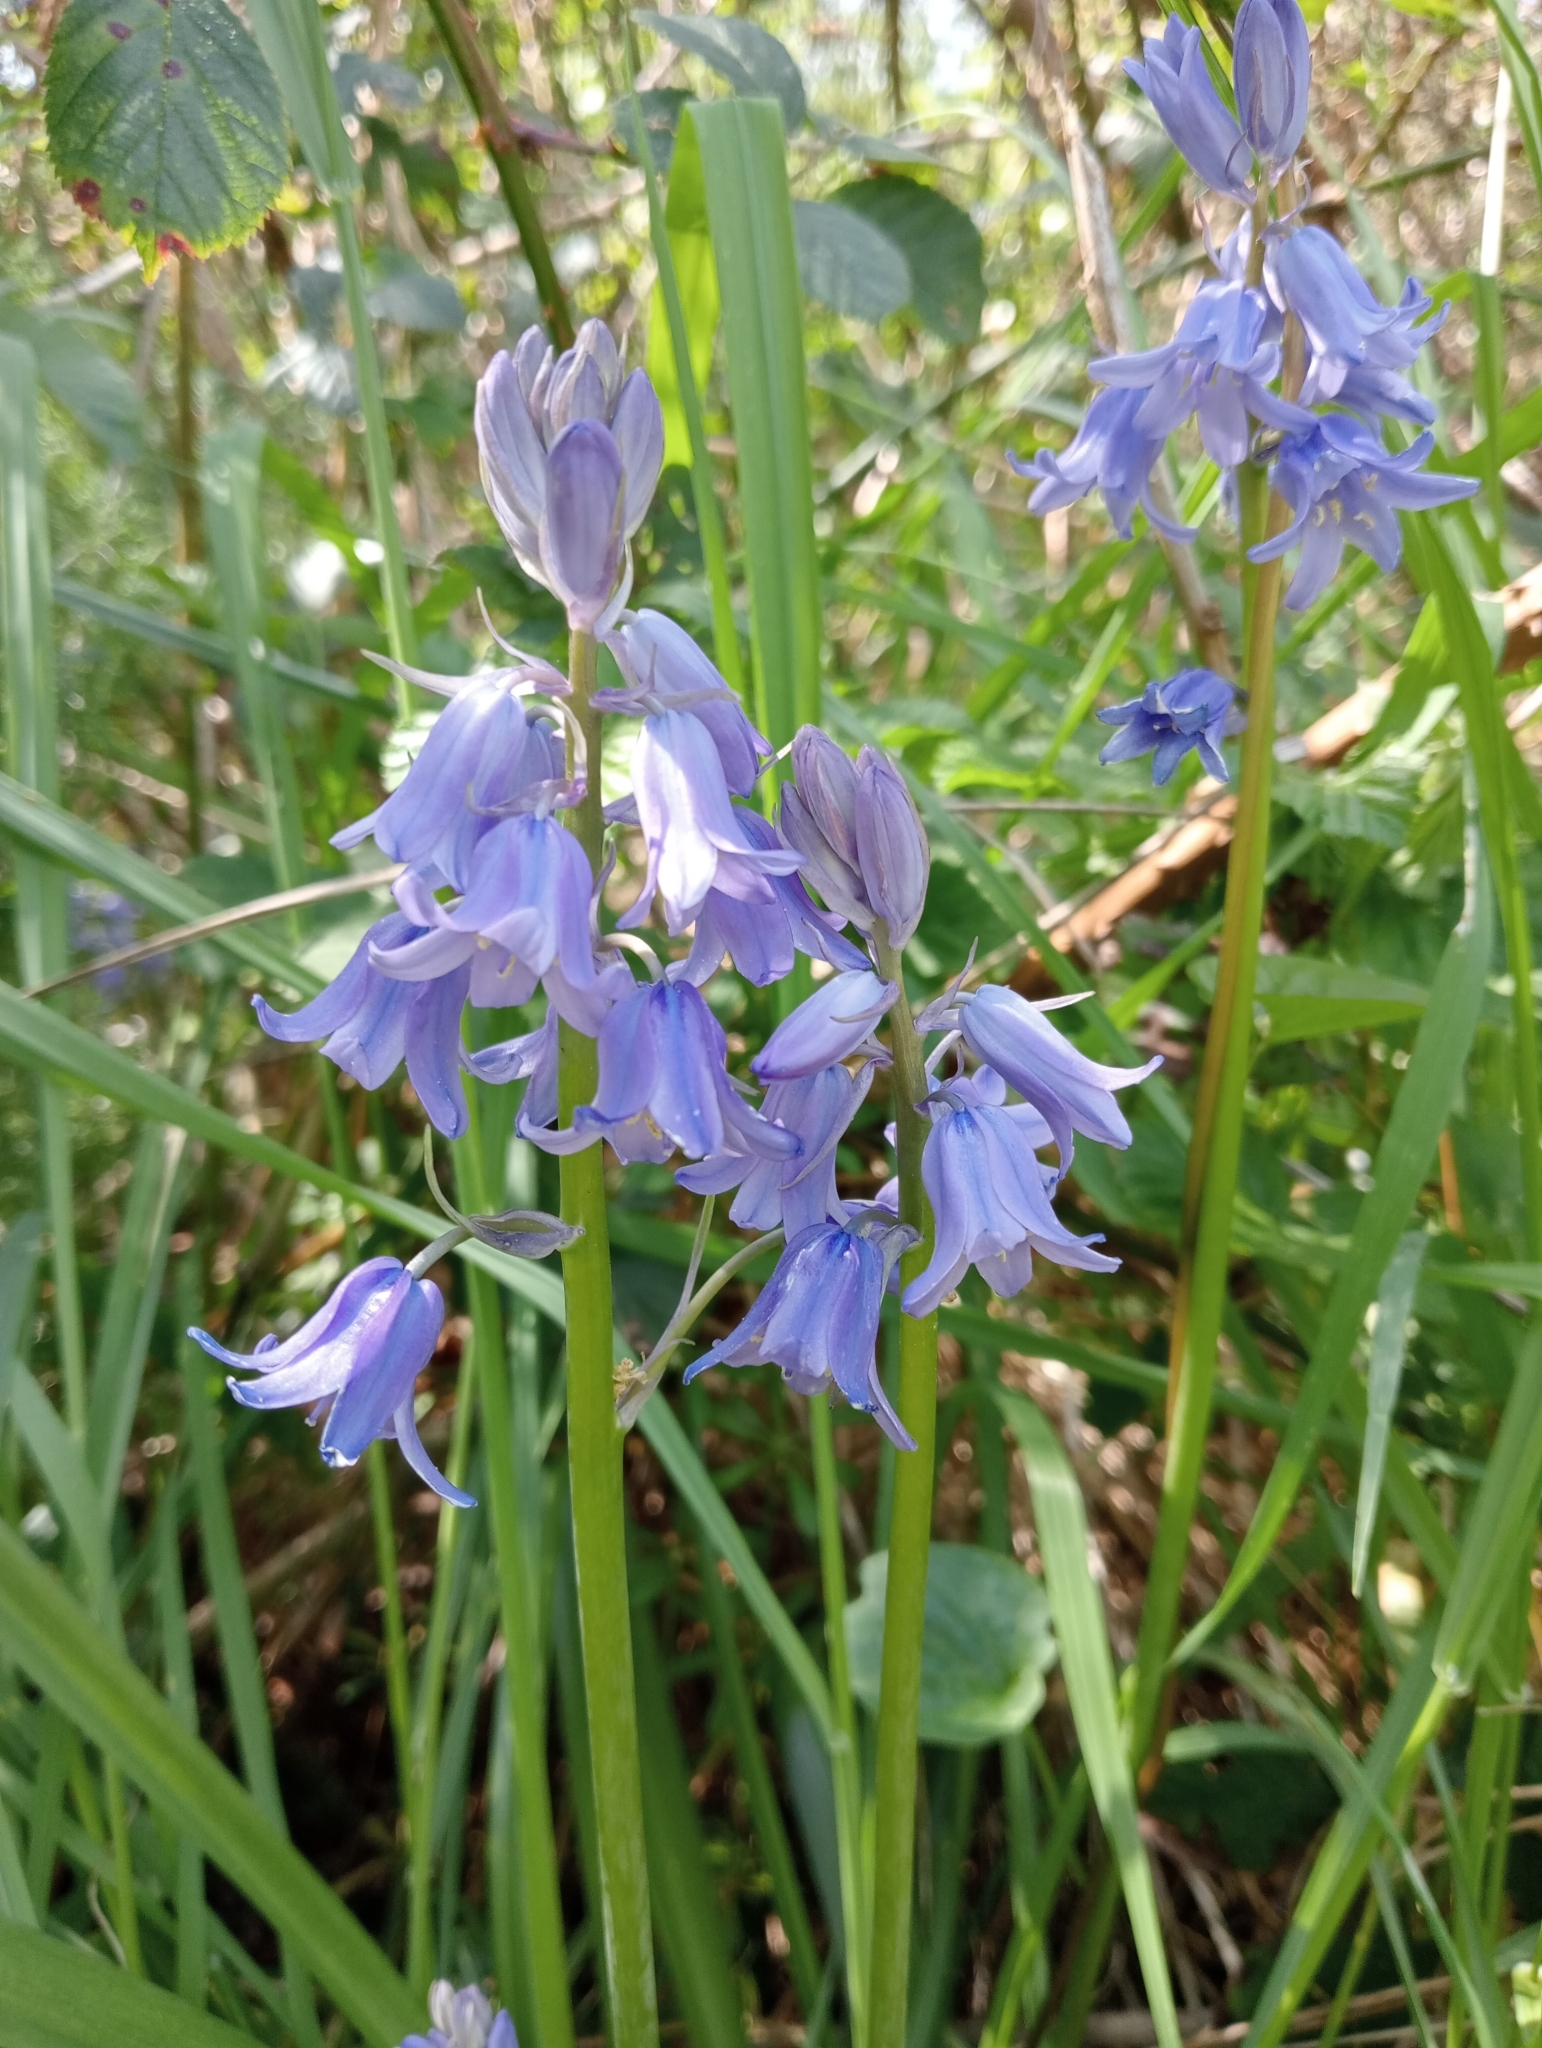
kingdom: Plantae
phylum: Tracheophyta
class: Liliopsida
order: Asparagales
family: Asparagaceae
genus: Hyacinthoides
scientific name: Hyacinthoides massartiana
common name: Hyacinthoides
